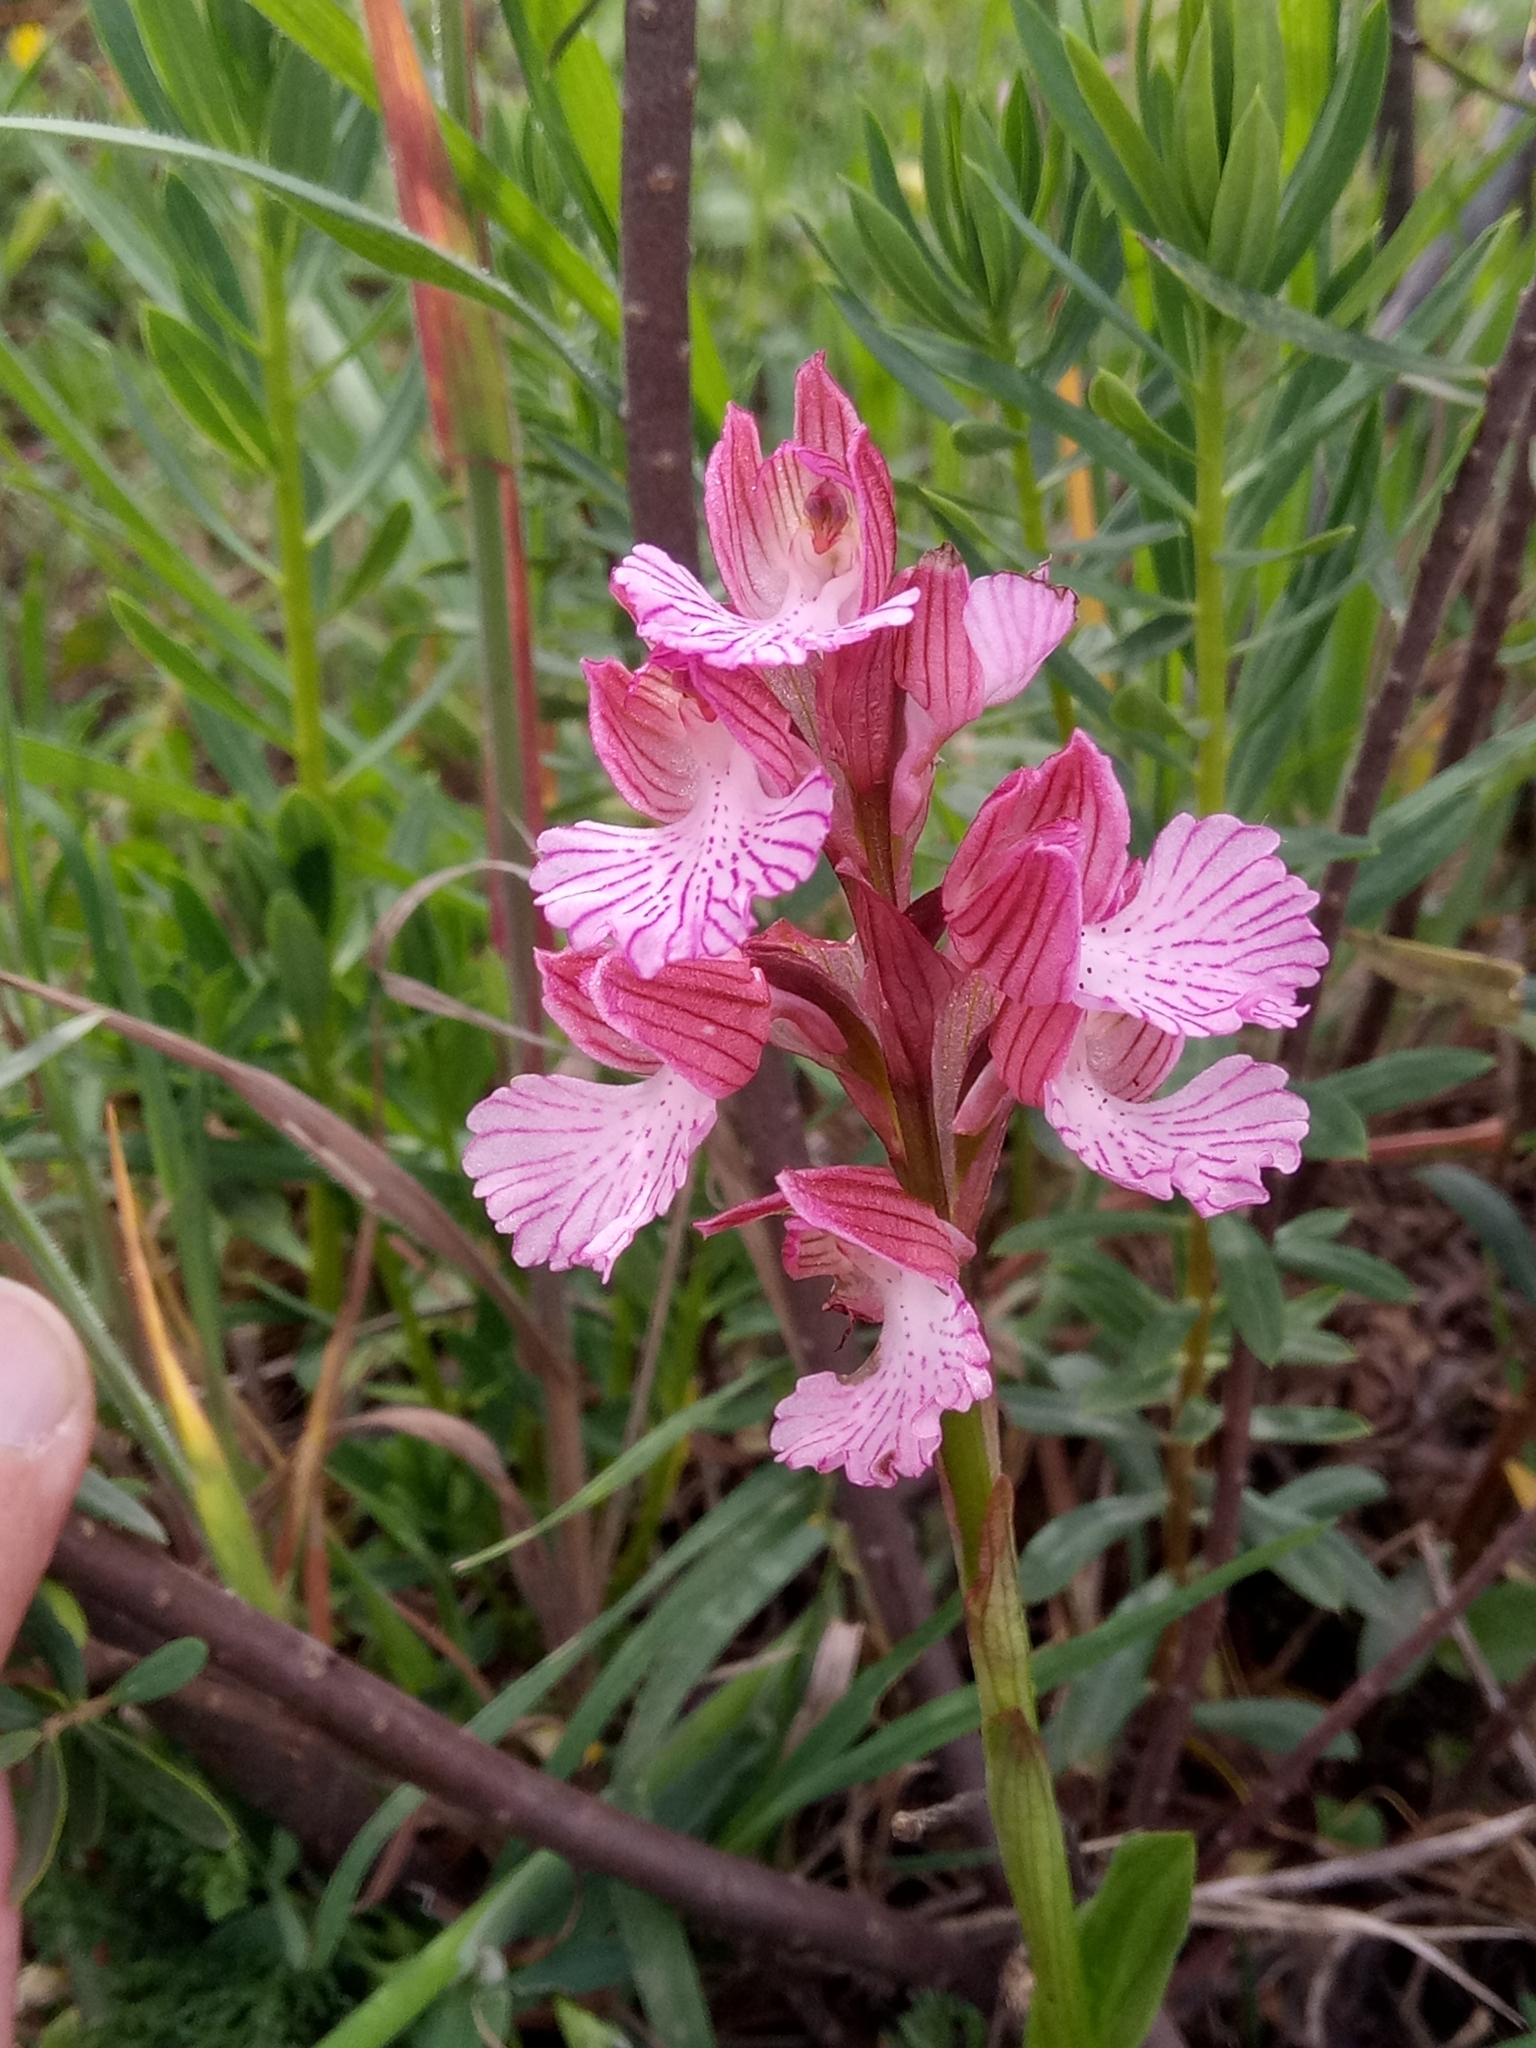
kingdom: Plantae
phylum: Tracheophyta
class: Liliopsida
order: Asparagales
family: Orchidaceae
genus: Anacamptis
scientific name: Anacamptis papilionacea
